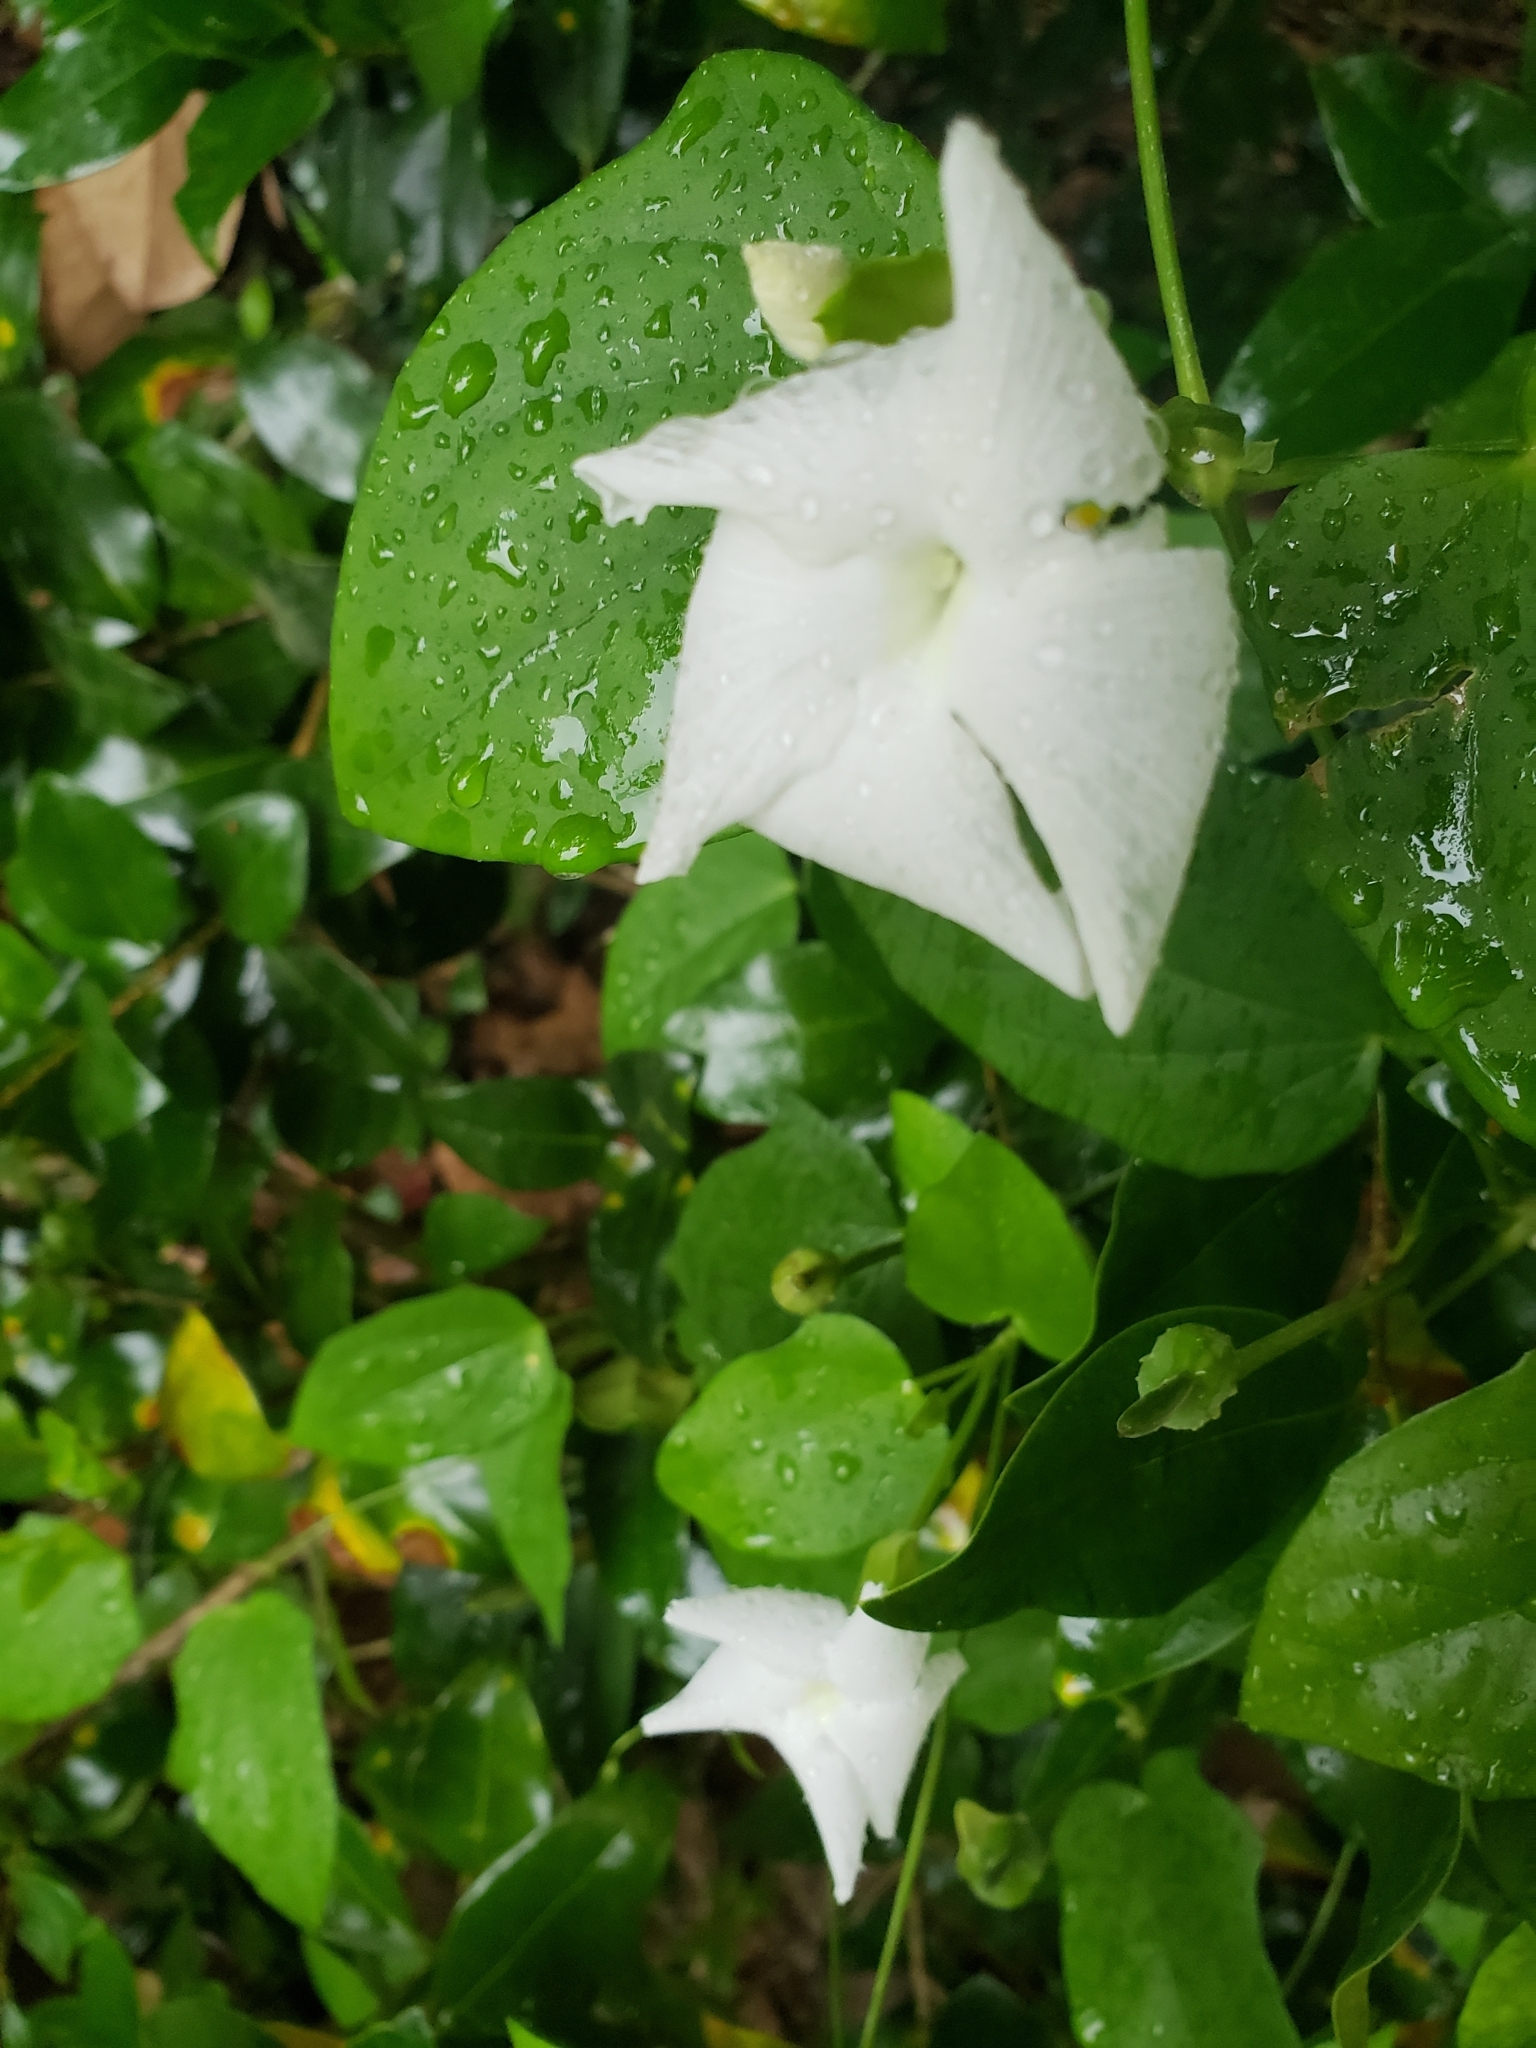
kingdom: Plantae
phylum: Tracheophyta
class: Magnoliopsida
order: Lamiales
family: Acanthaceae
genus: Thunbergia
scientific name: Thunbergia fragrans
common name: Whitelady
